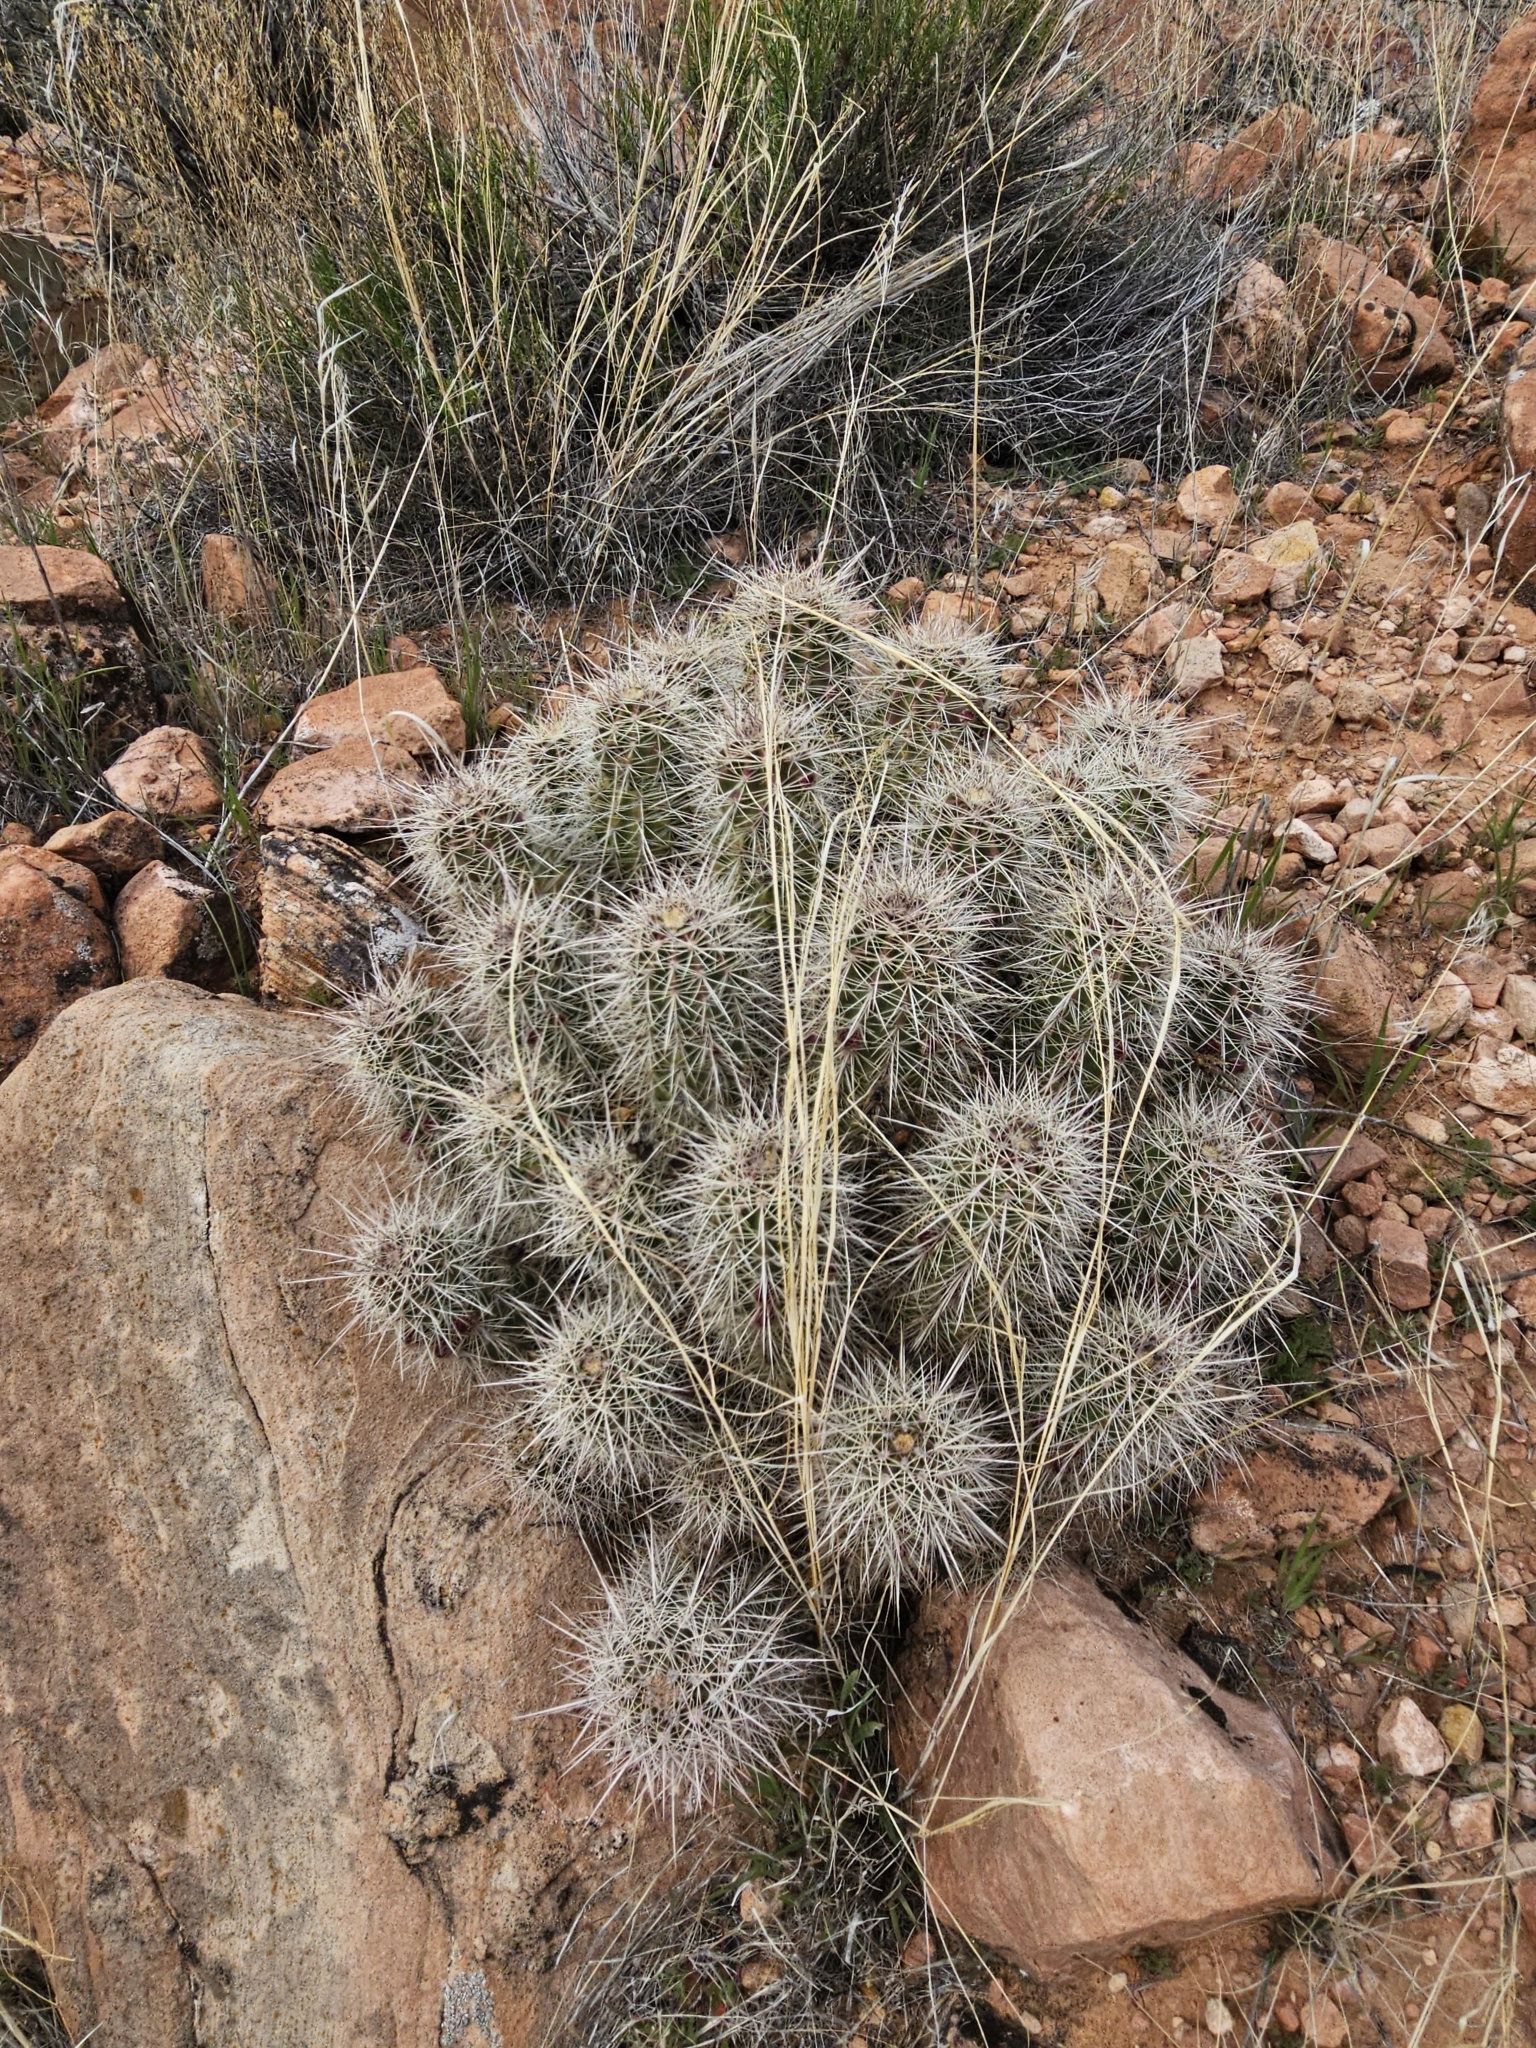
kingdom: Plantae
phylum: Tracheophyta
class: Magnoliopsida
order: Caryophyllales
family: Cactaceae
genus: Echinocereus
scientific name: Echinocereus bakeri
